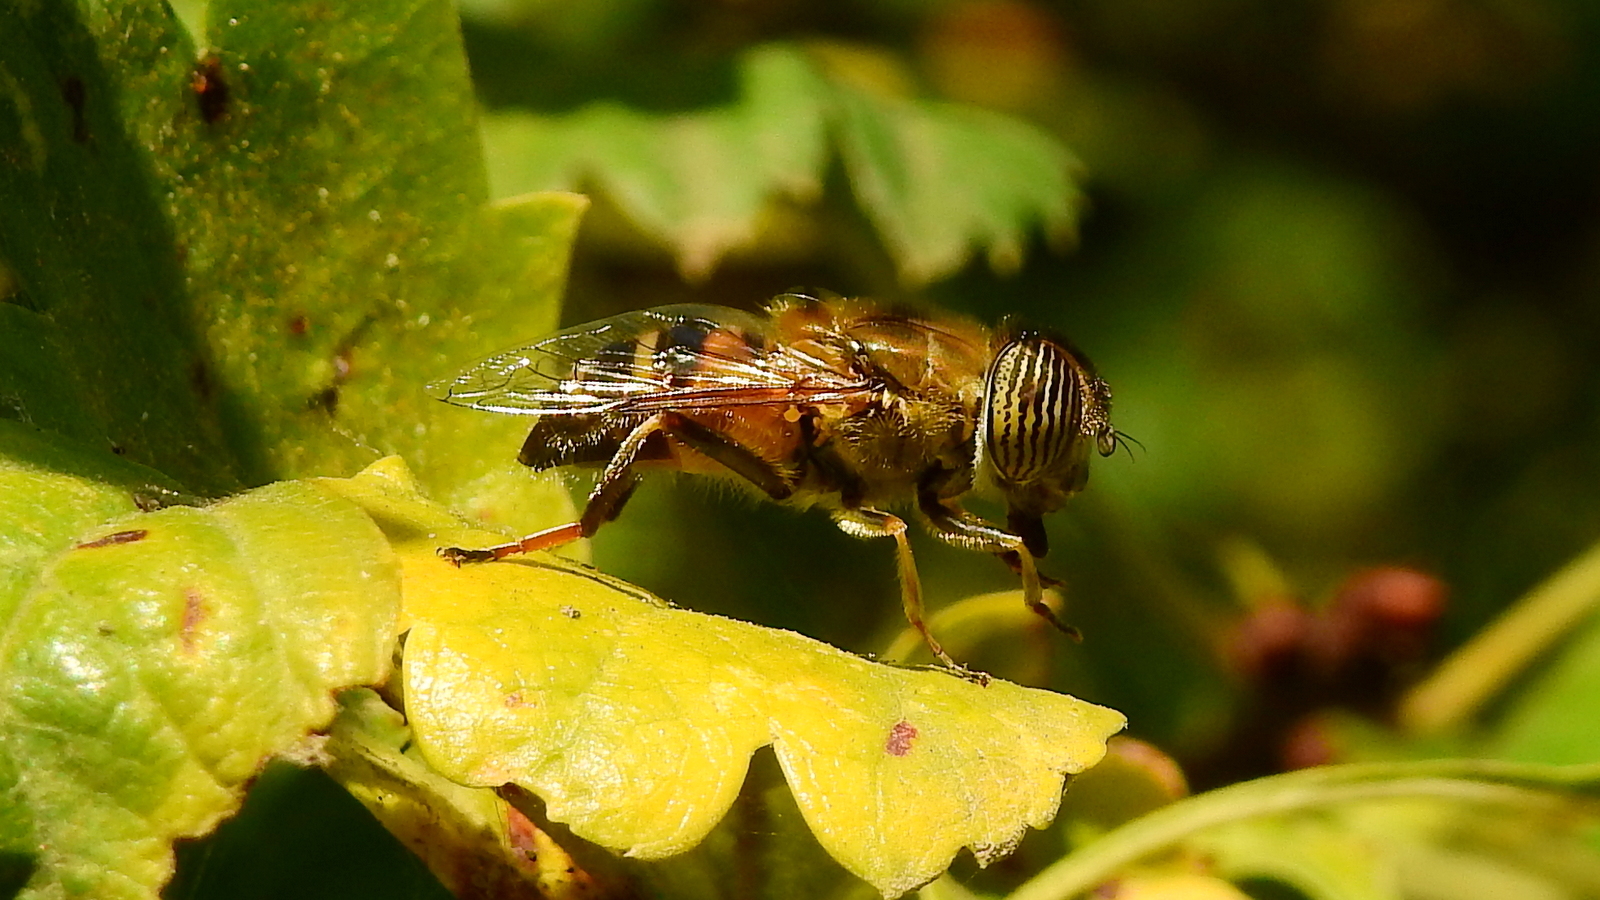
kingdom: Animalia
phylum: Arthropoda
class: Insecta
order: Diptera
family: Syrphidae
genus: Eristalinus
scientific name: Eristalinus taeniops
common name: Syrphid fly
